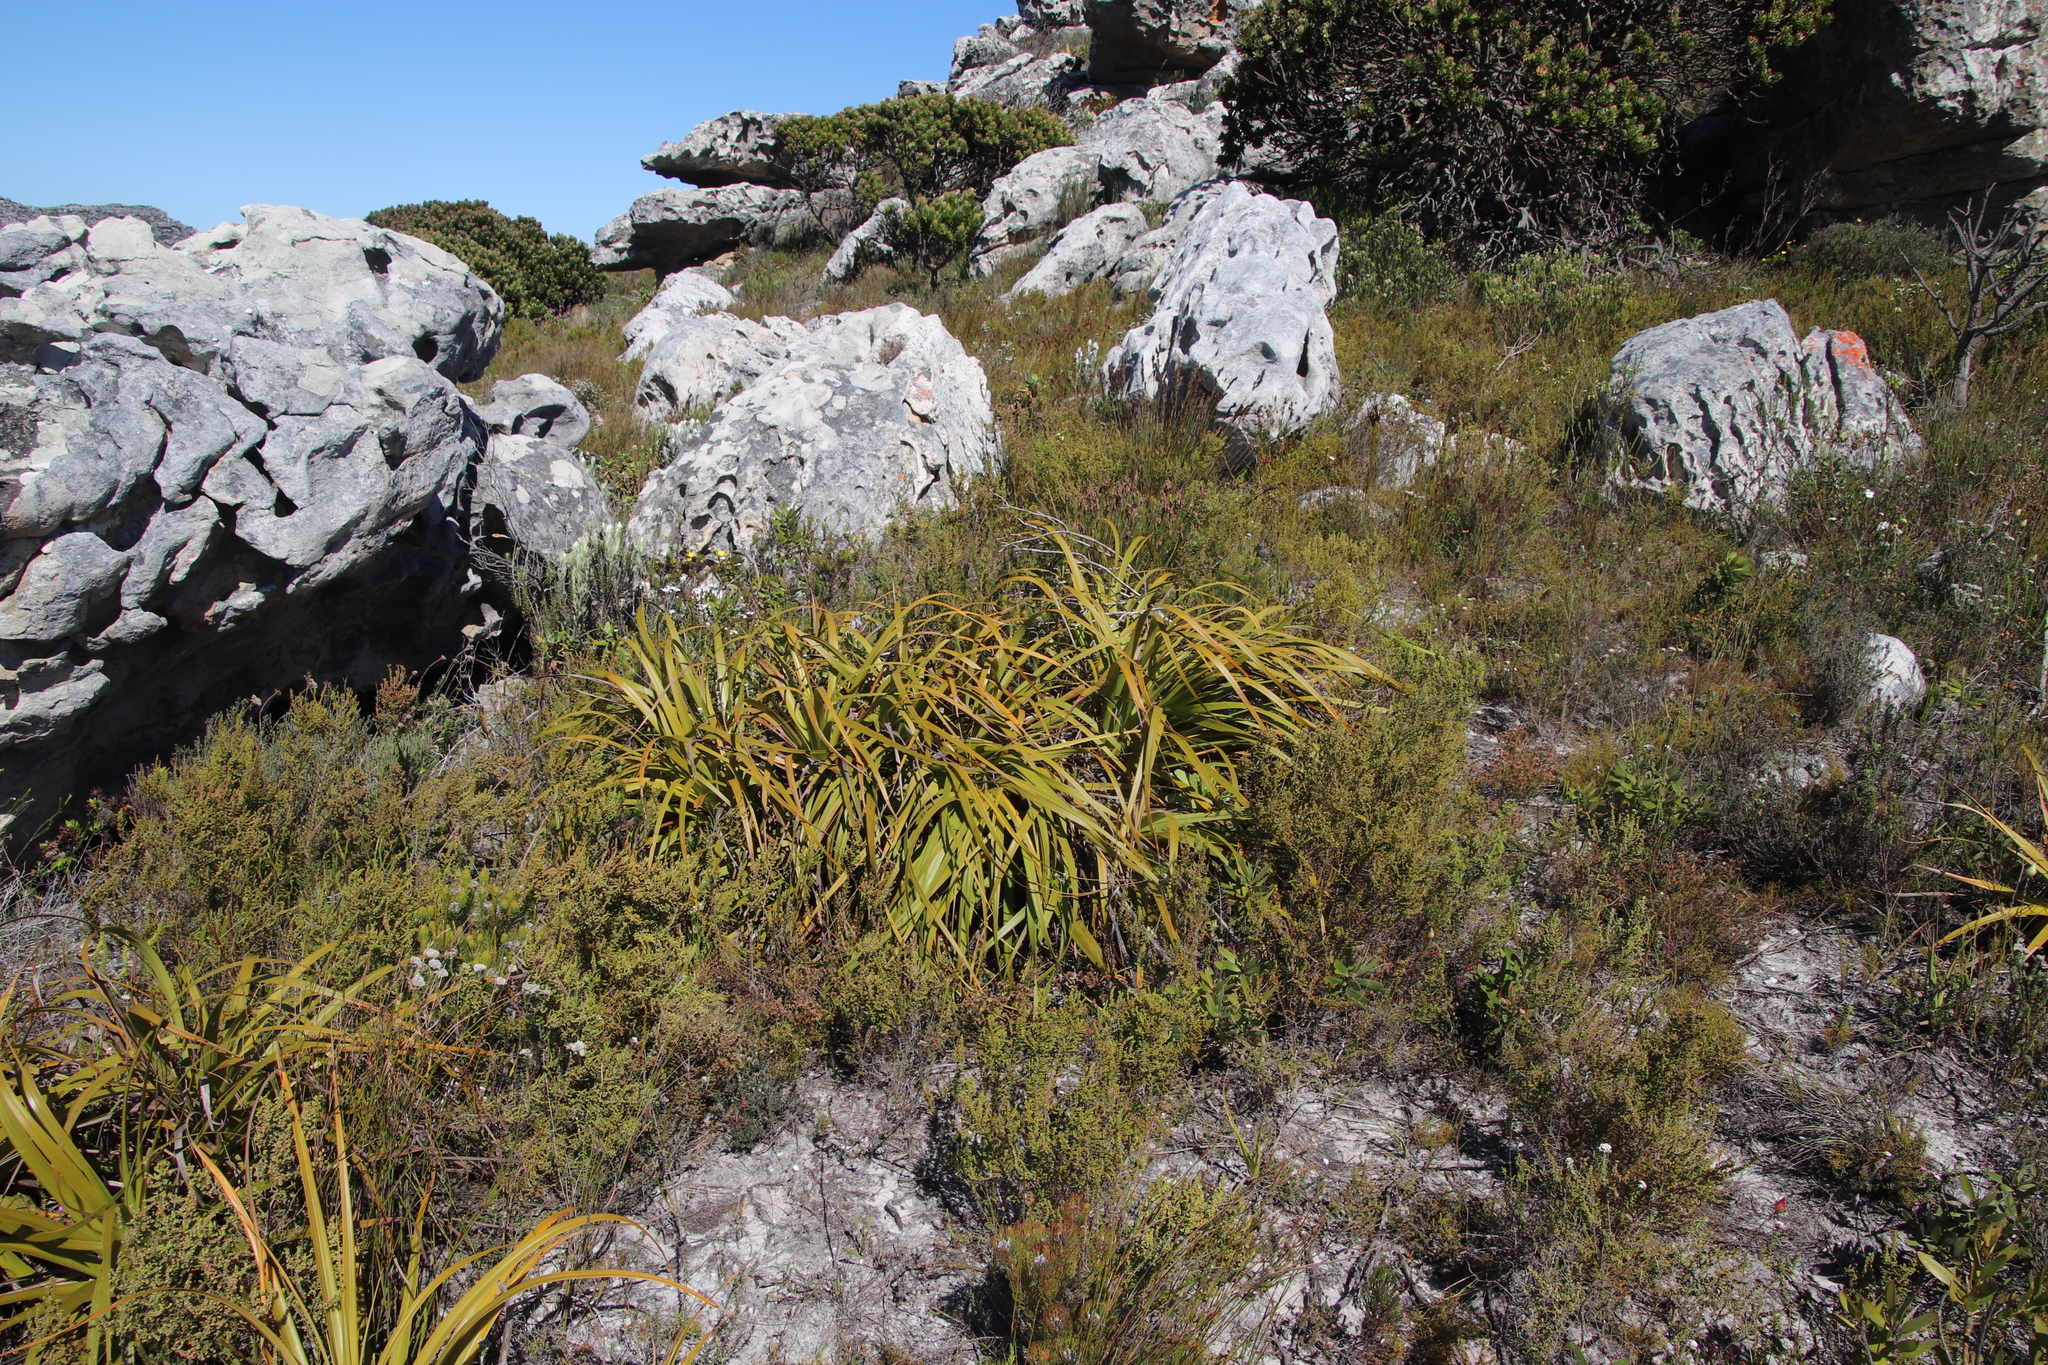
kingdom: Plantae
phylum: Tracheophyta
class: Liliopsida
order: Poales
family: Cyperaceae
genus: Tetraria
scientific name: Tetraria thermalis
